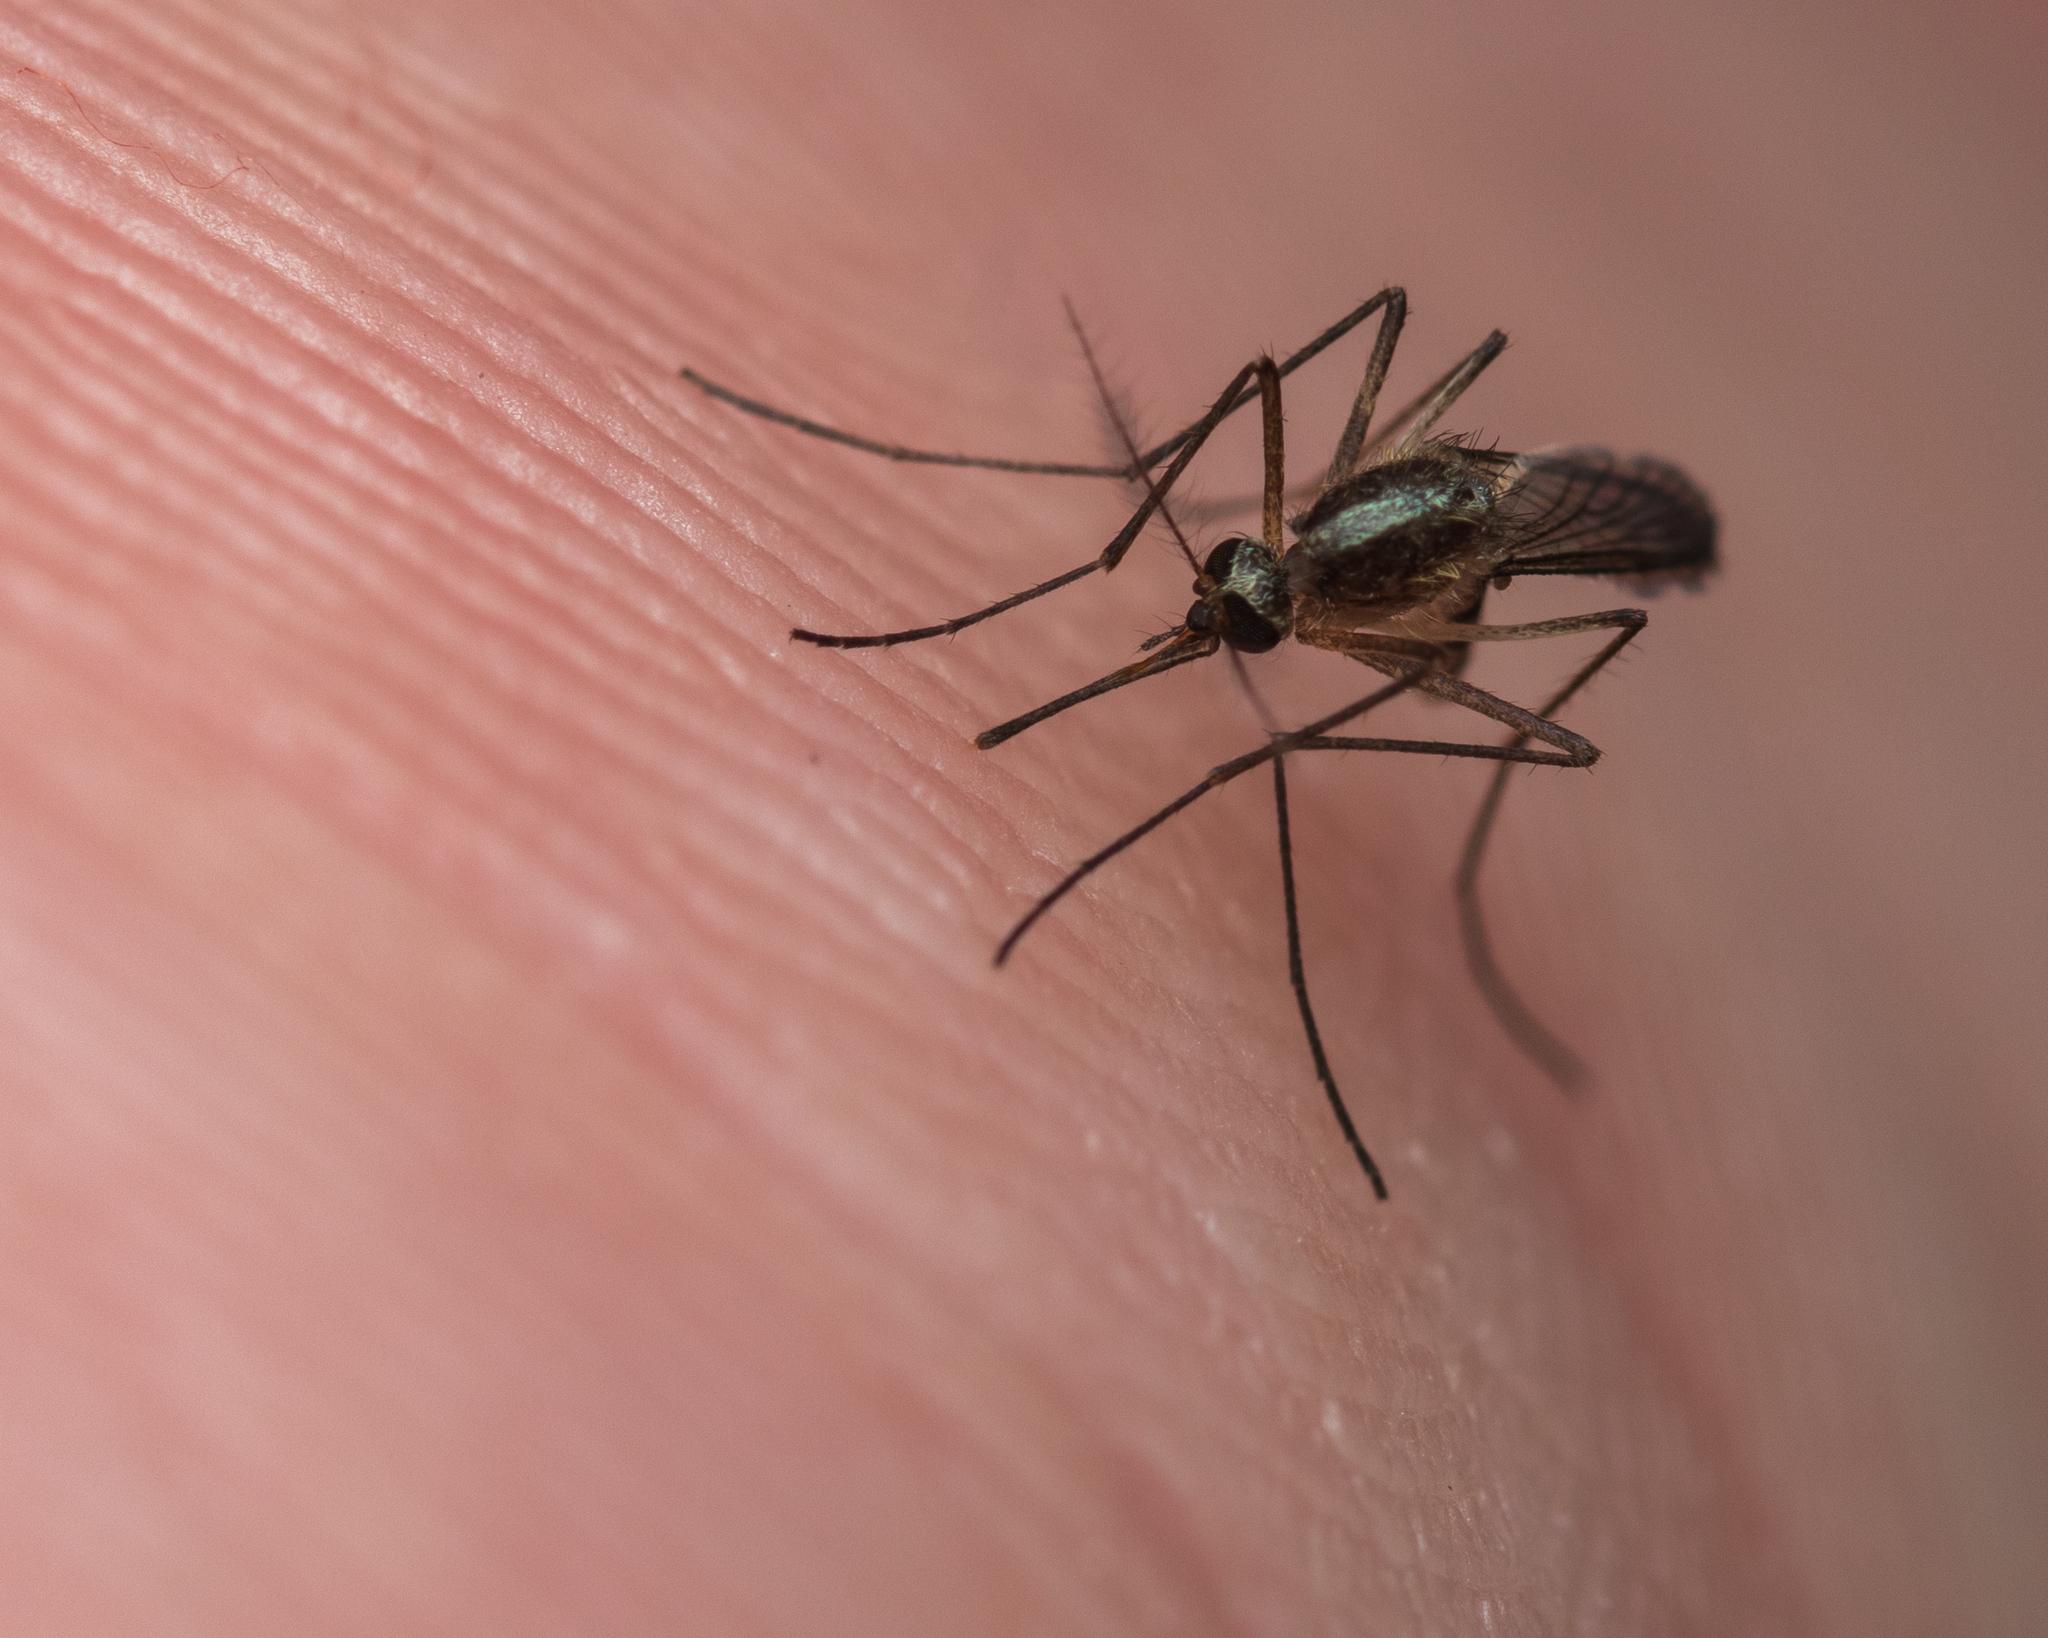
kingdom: Animalia
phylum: Arthropoda
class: Insecta
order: Diptera
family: Culicidae
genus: Aedes
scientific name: Aedes tormentor
